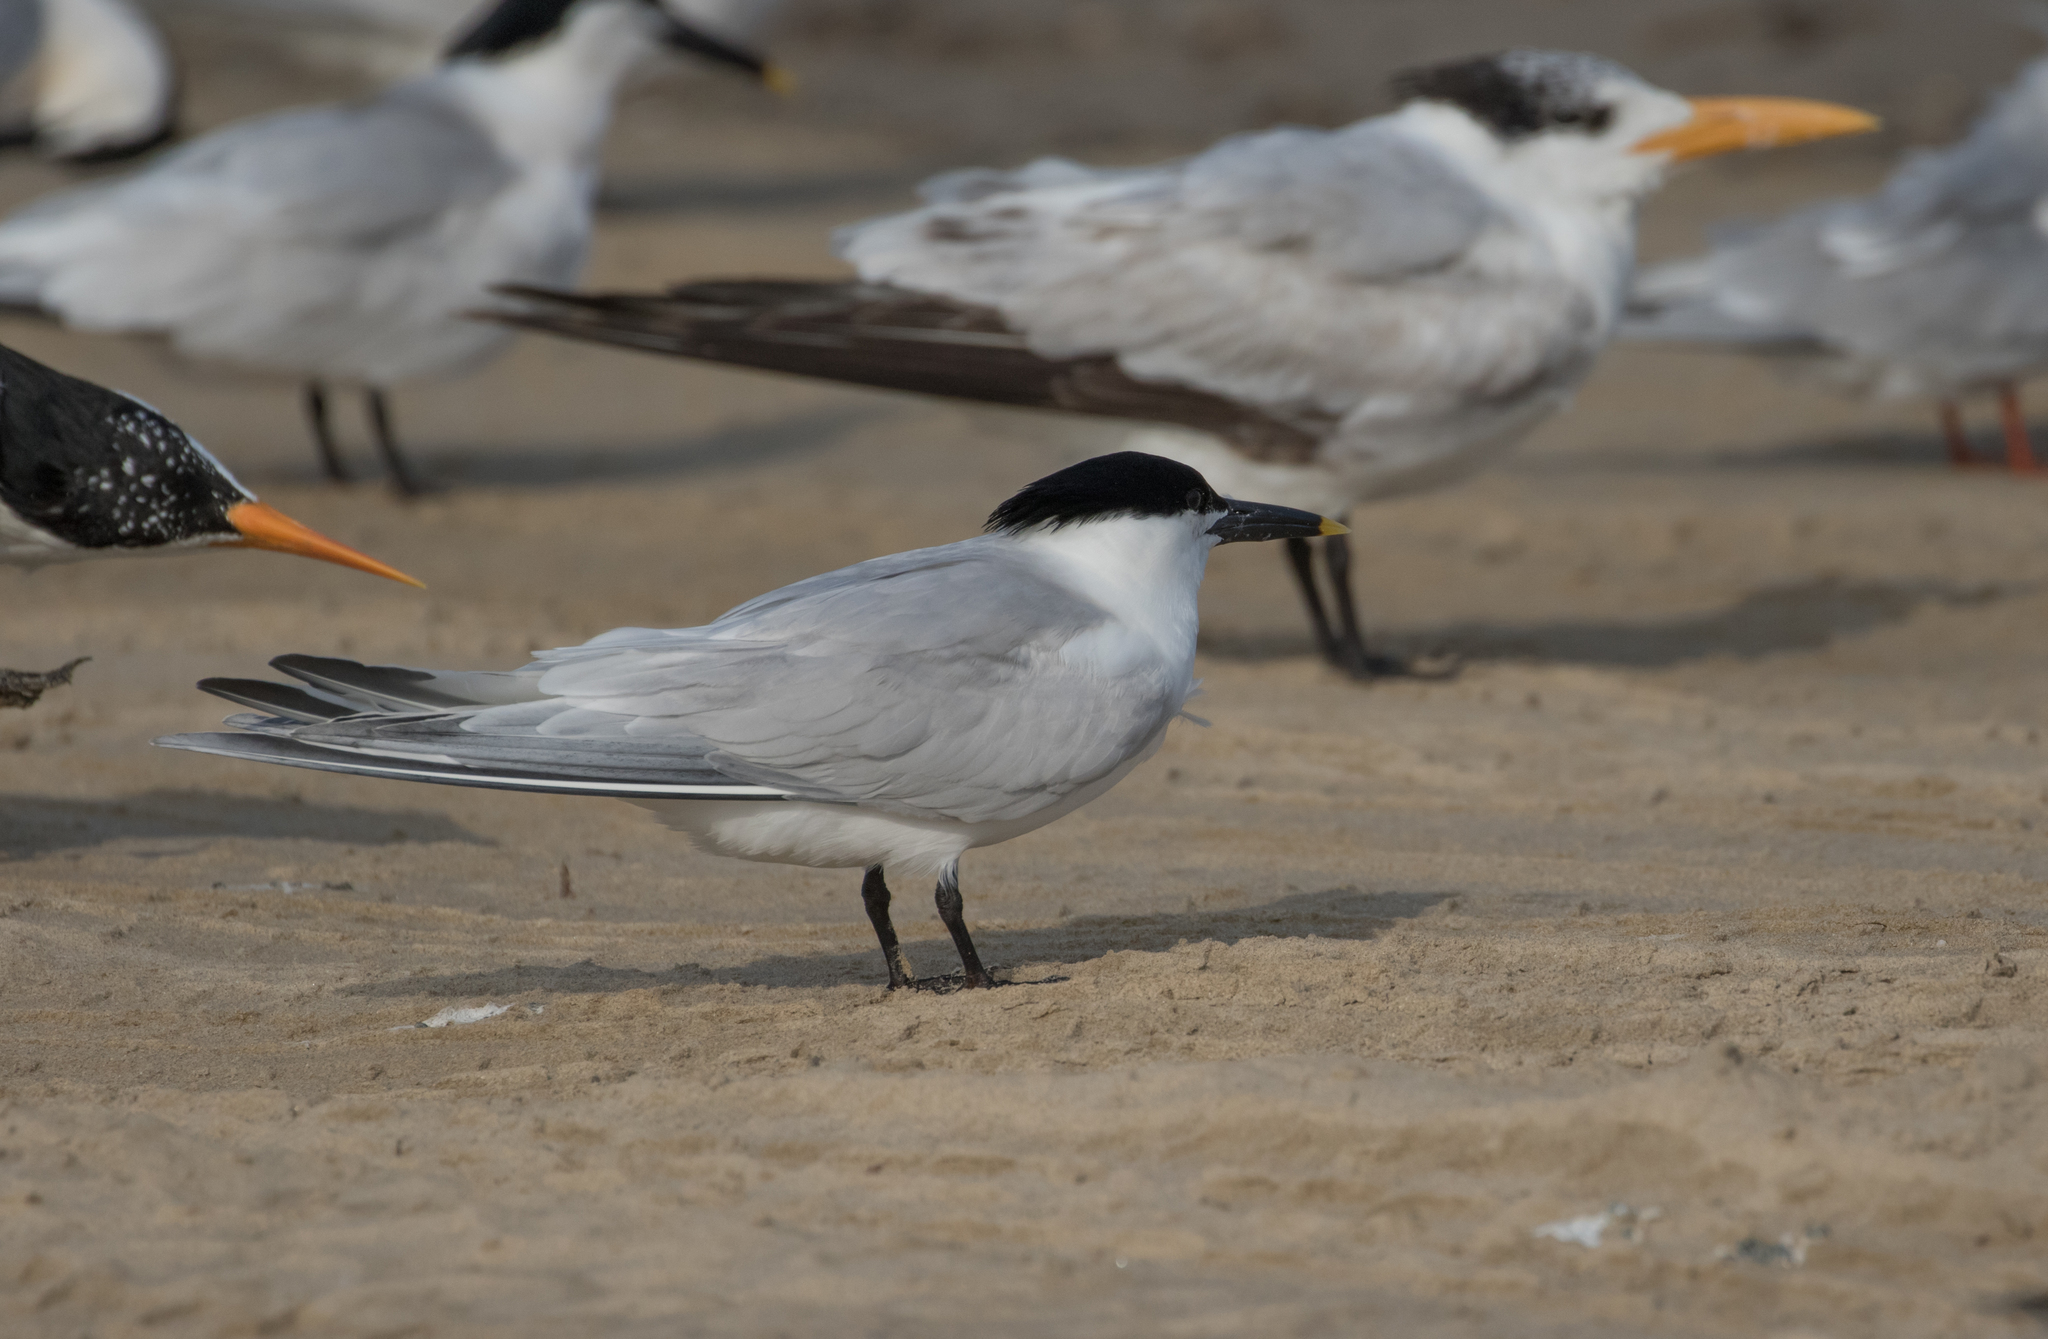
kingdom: Animalia
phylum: Chordata
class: Aves
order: Charadriiformes
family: Laridae
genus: Thalasseus
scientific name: Thalasseus sandvicensis
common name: Sandwich tern
